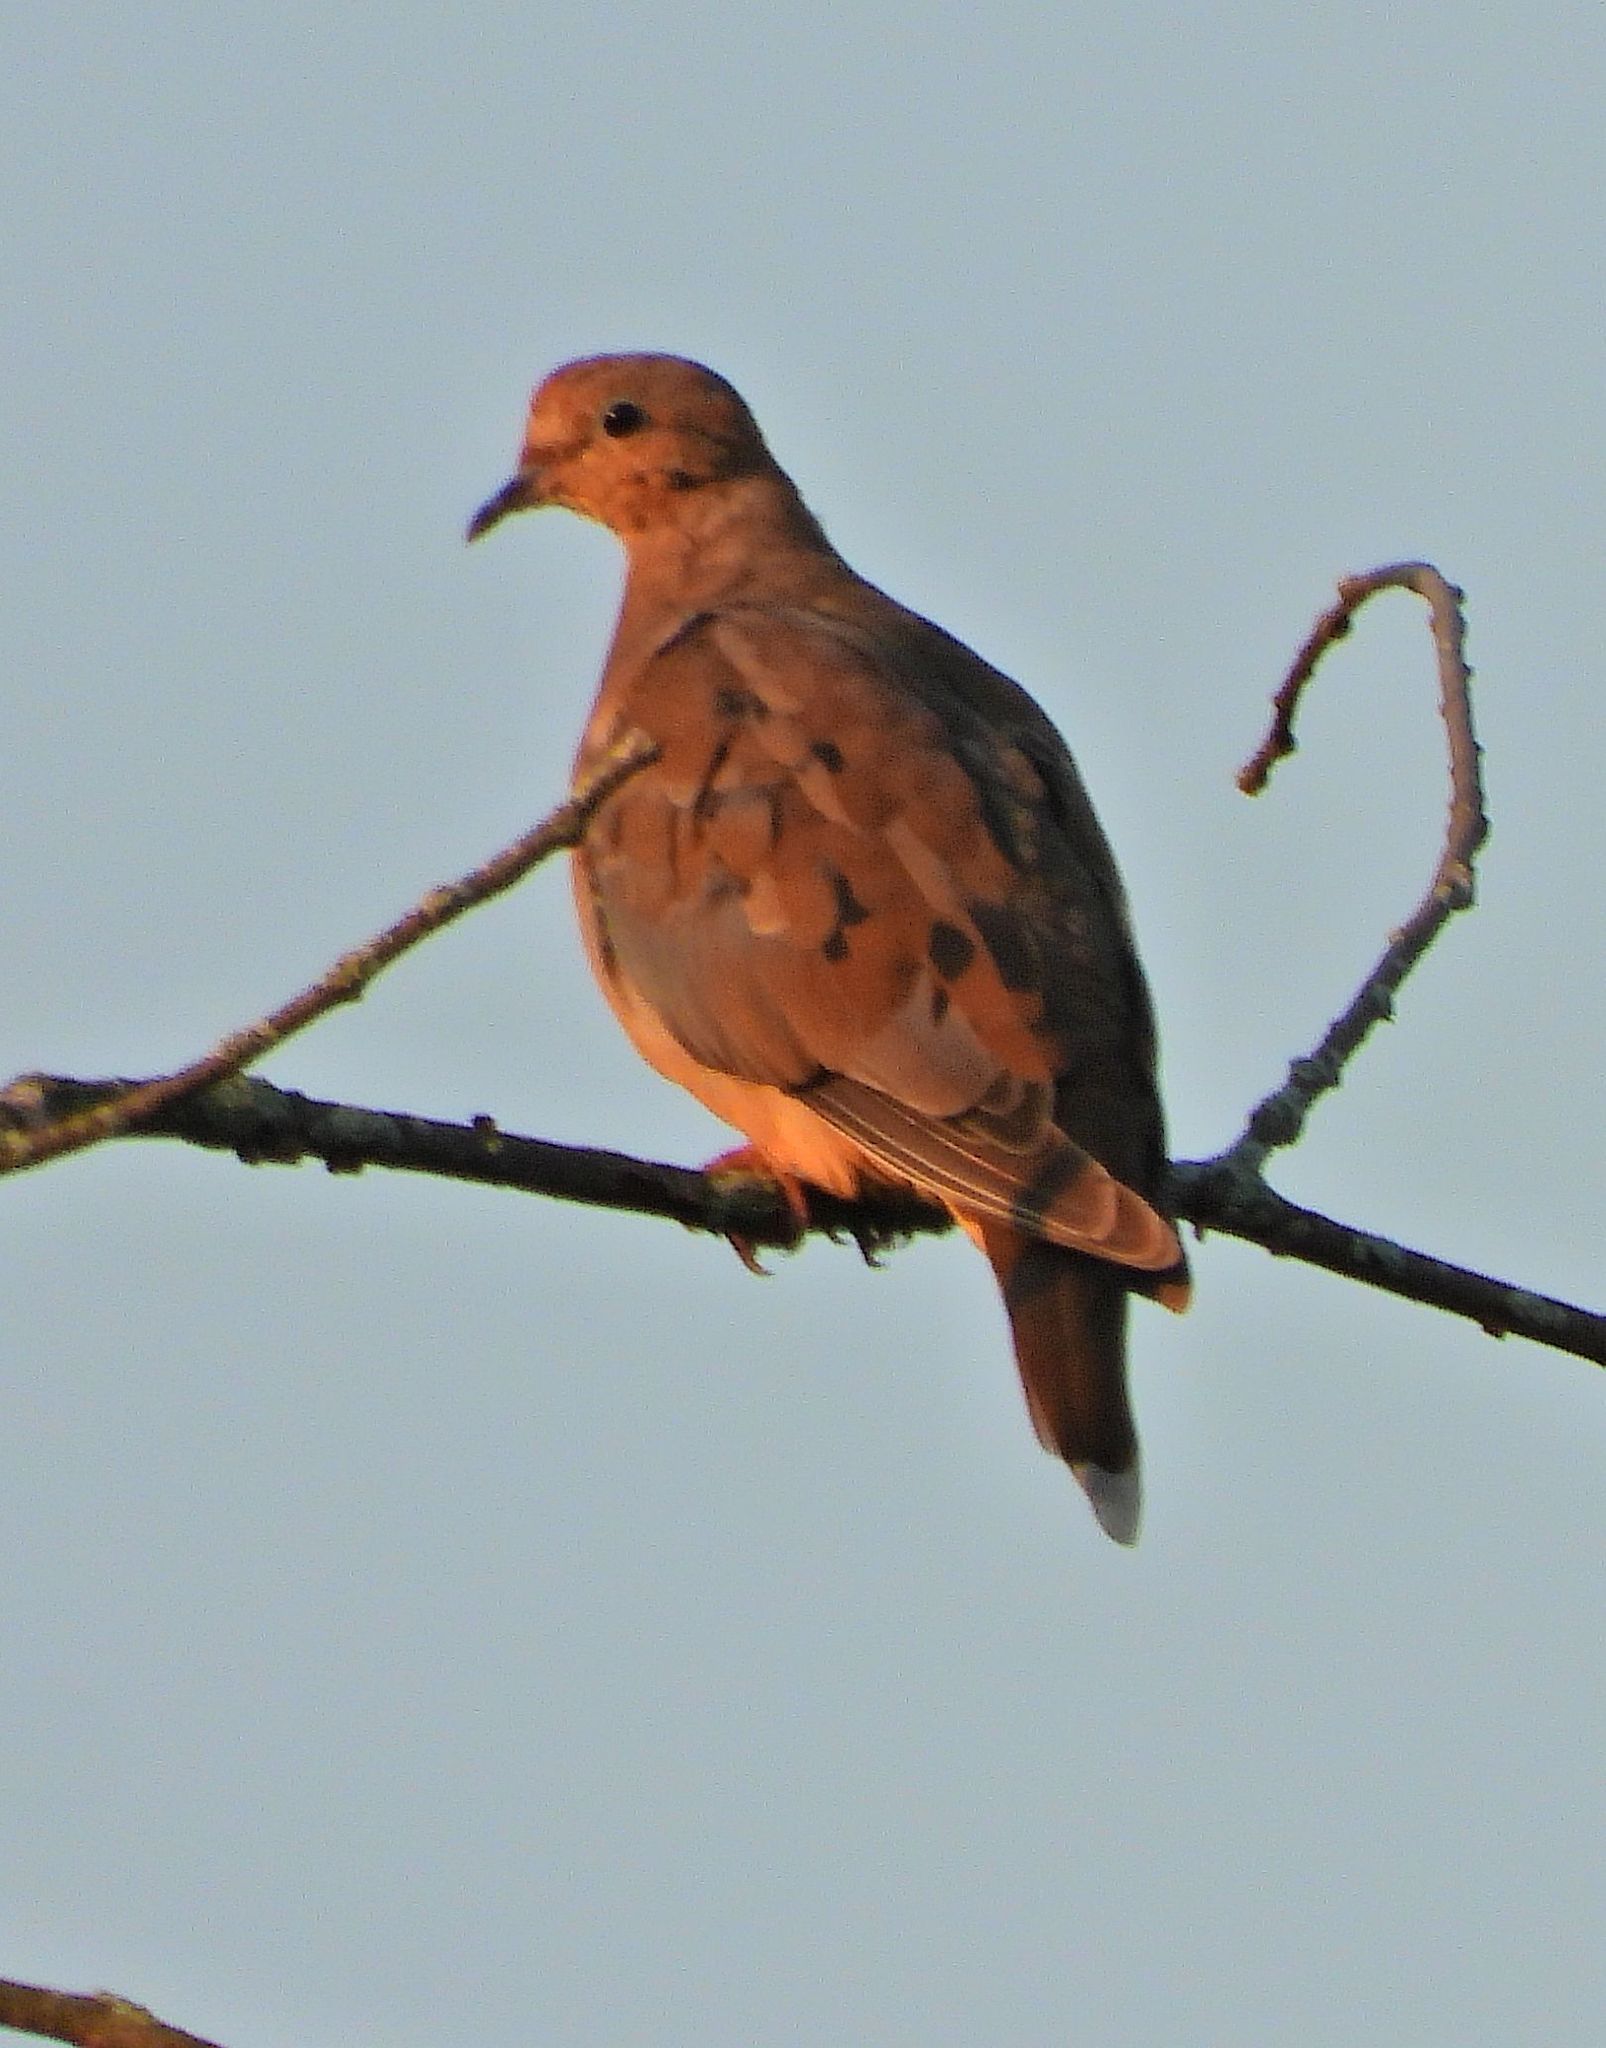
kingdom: Animalia
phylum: Chordata
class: Aves
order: Columbiformes
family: Columbidae
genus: Zenaida
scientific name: Zenaida macroura
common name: Mourning dove
